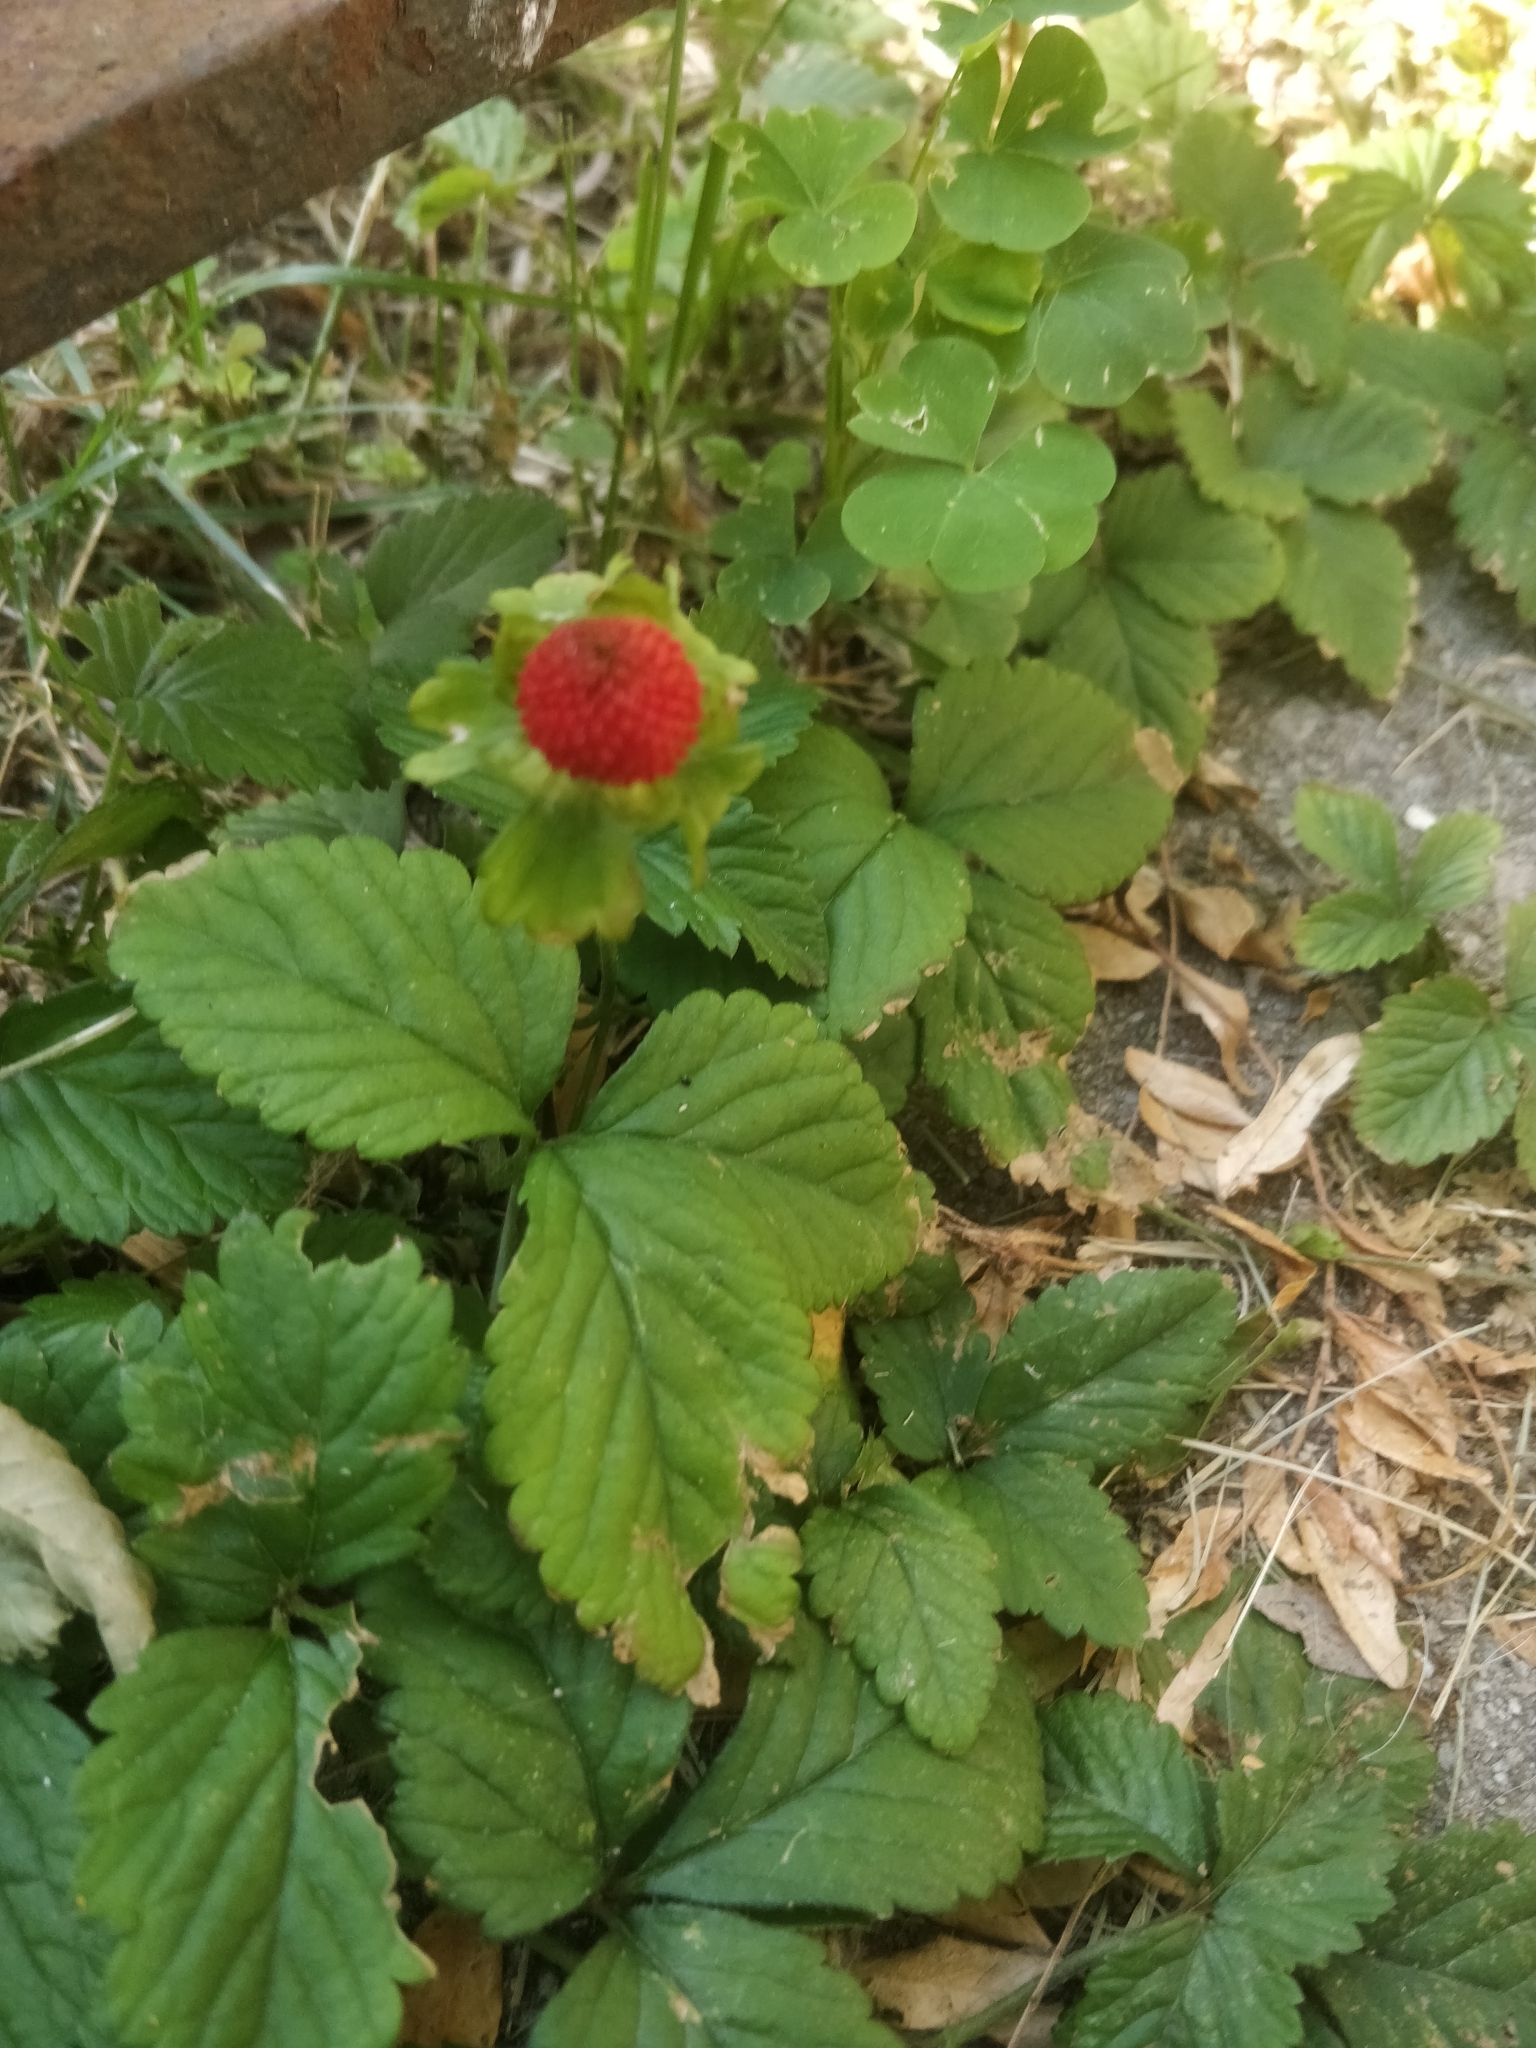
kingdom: Plantae
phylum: Tracheophyta
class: Magnoliopsida
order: Rosales
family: Rosaceae
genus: Potentilla
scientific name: Potentilla indica
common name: Yellow-flowered strawberry
